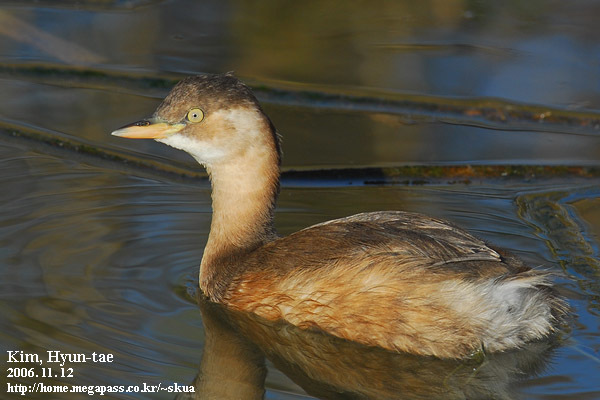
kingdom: Animalia
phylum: Chordata
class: Aves
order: Podicipediformes
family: Podicipedidae
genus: Tachybaptus
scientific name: Tachybaptus ruficollis
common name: Little grebe
